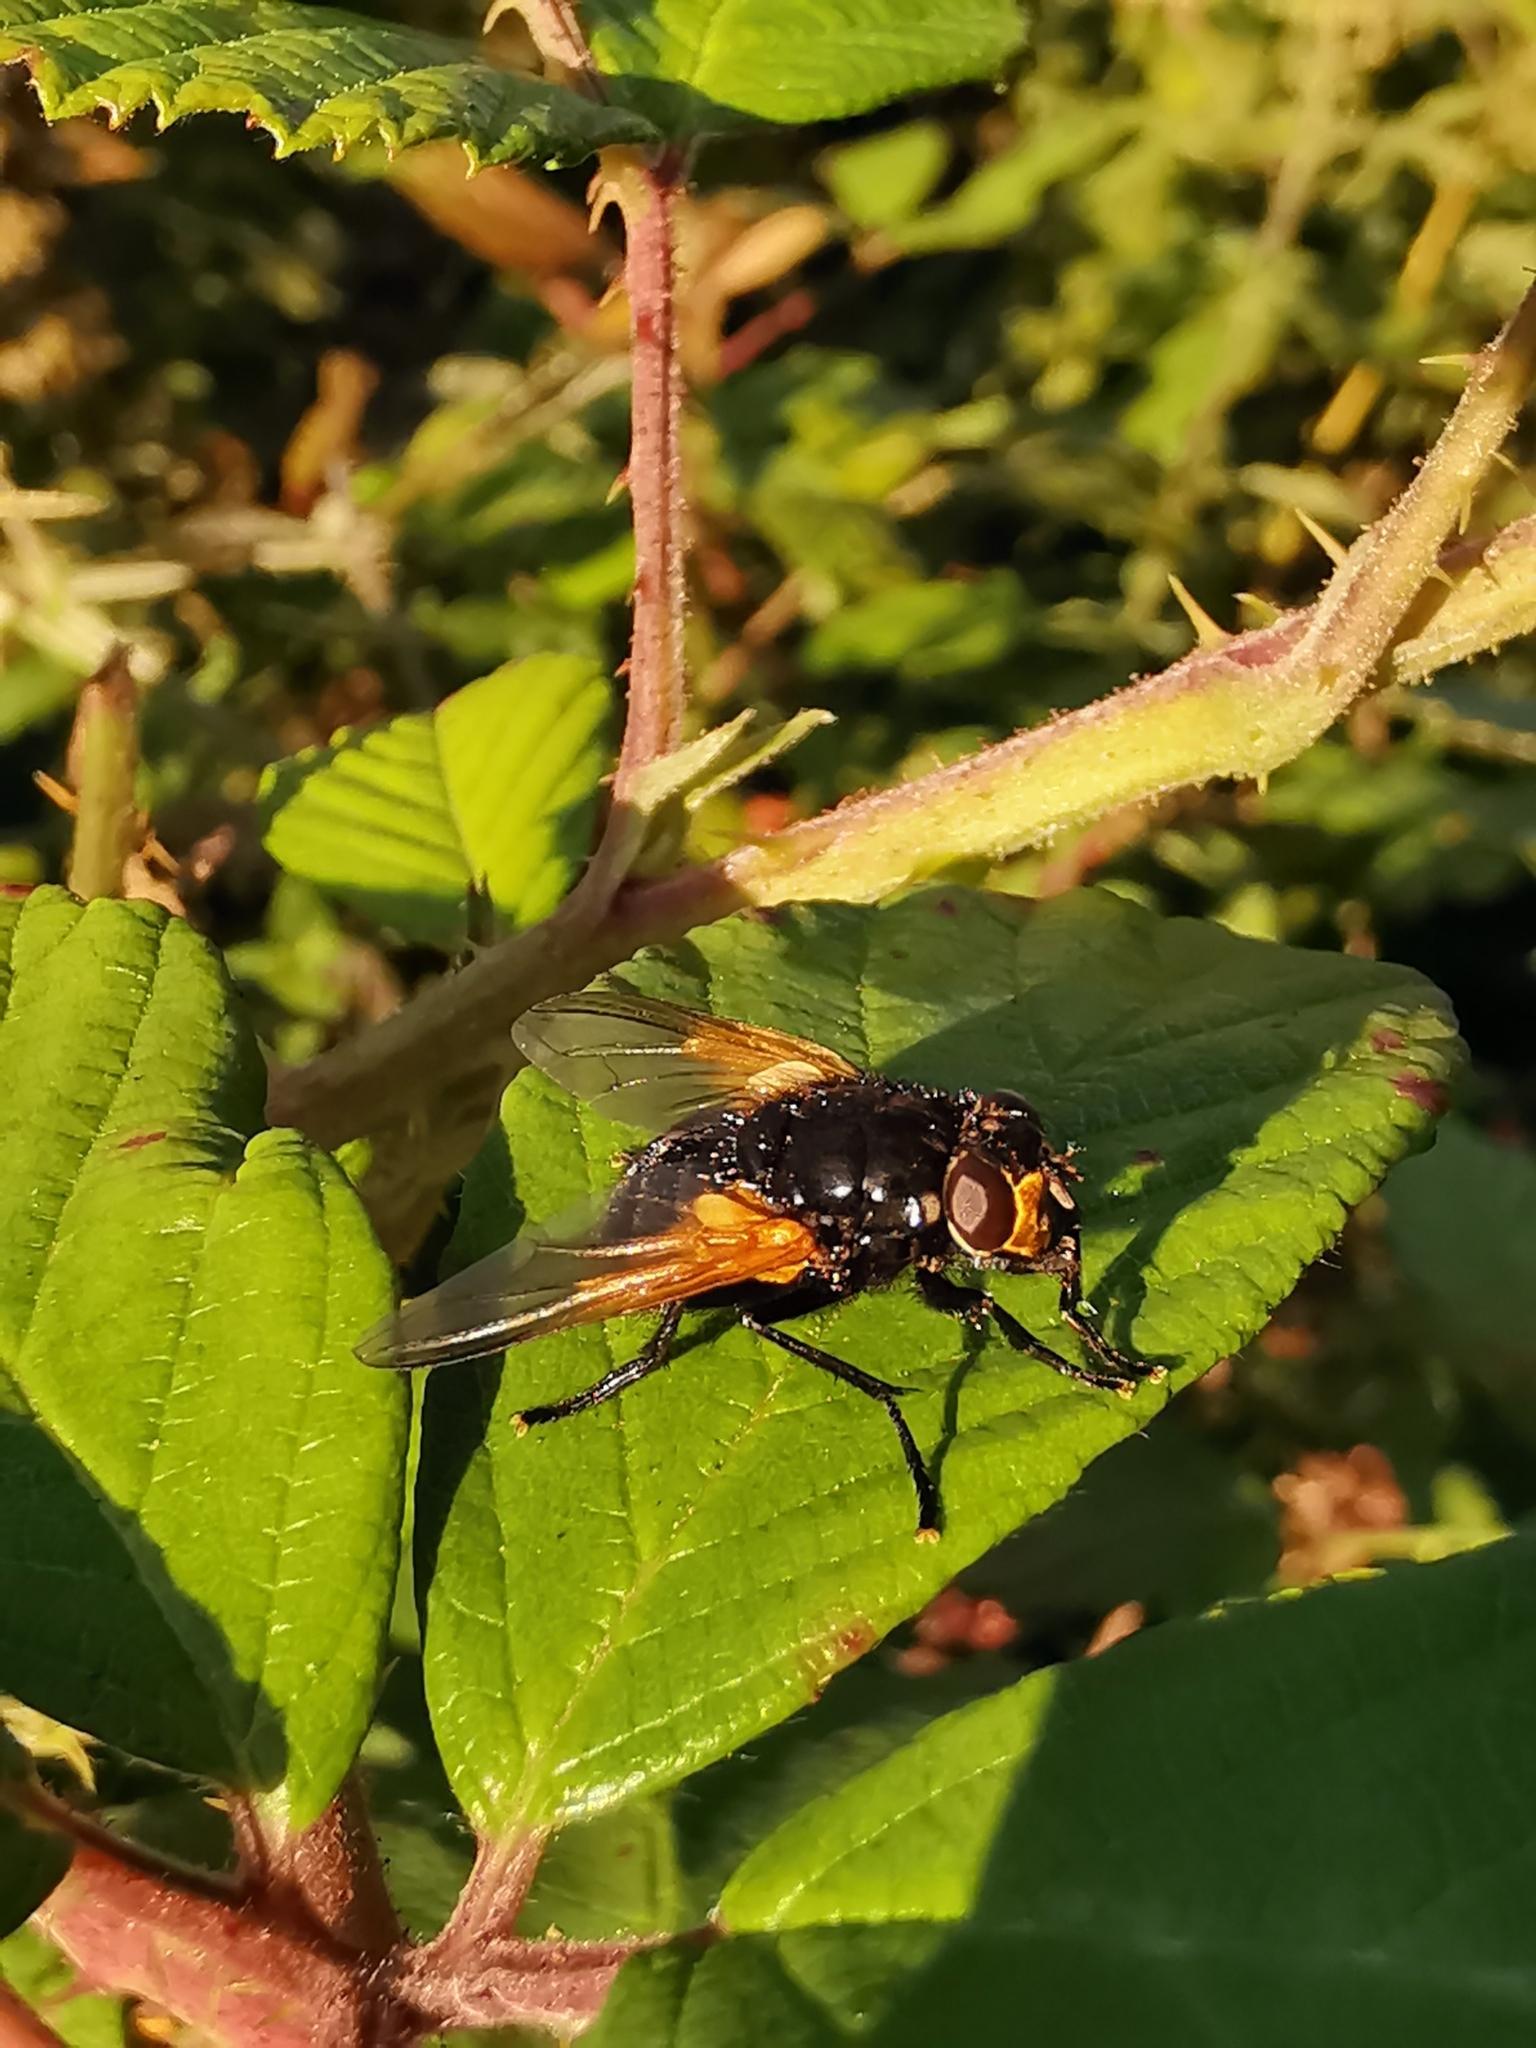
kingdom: Animalia
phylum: Arthropoda
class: Insecta
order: Diptera
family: Muscidae
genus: Mesembrina
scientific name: Mesembrina meridiana
